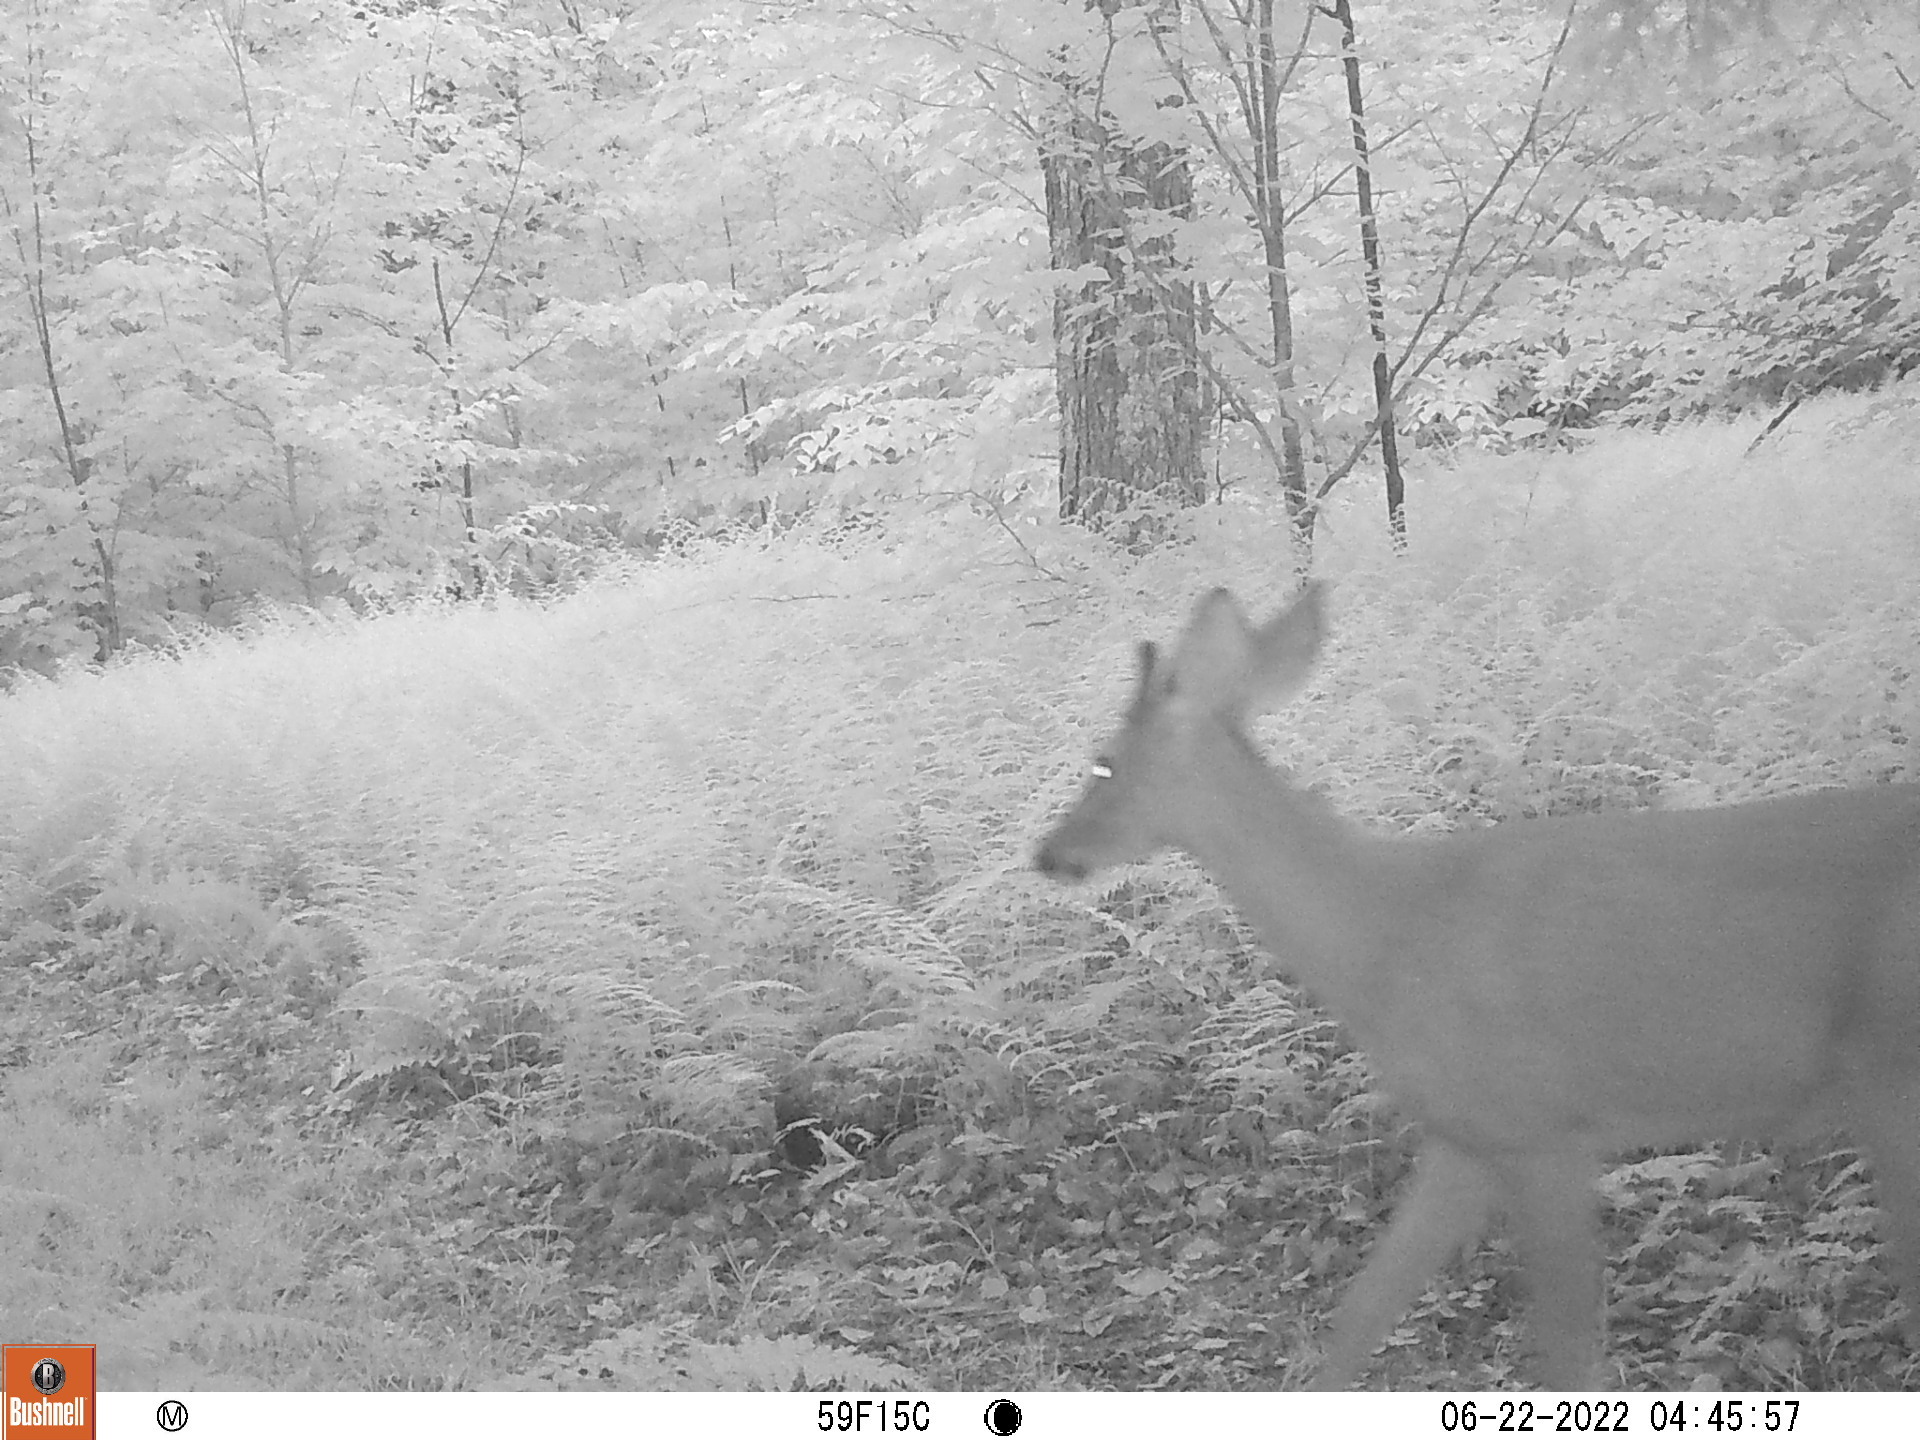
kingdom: Animalia
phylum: Chordata
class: Mammalia
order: Artiodactyla
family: Cervidae
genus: Odocoileus
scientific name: Odocoileus virginianus
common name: White-tailed deer
